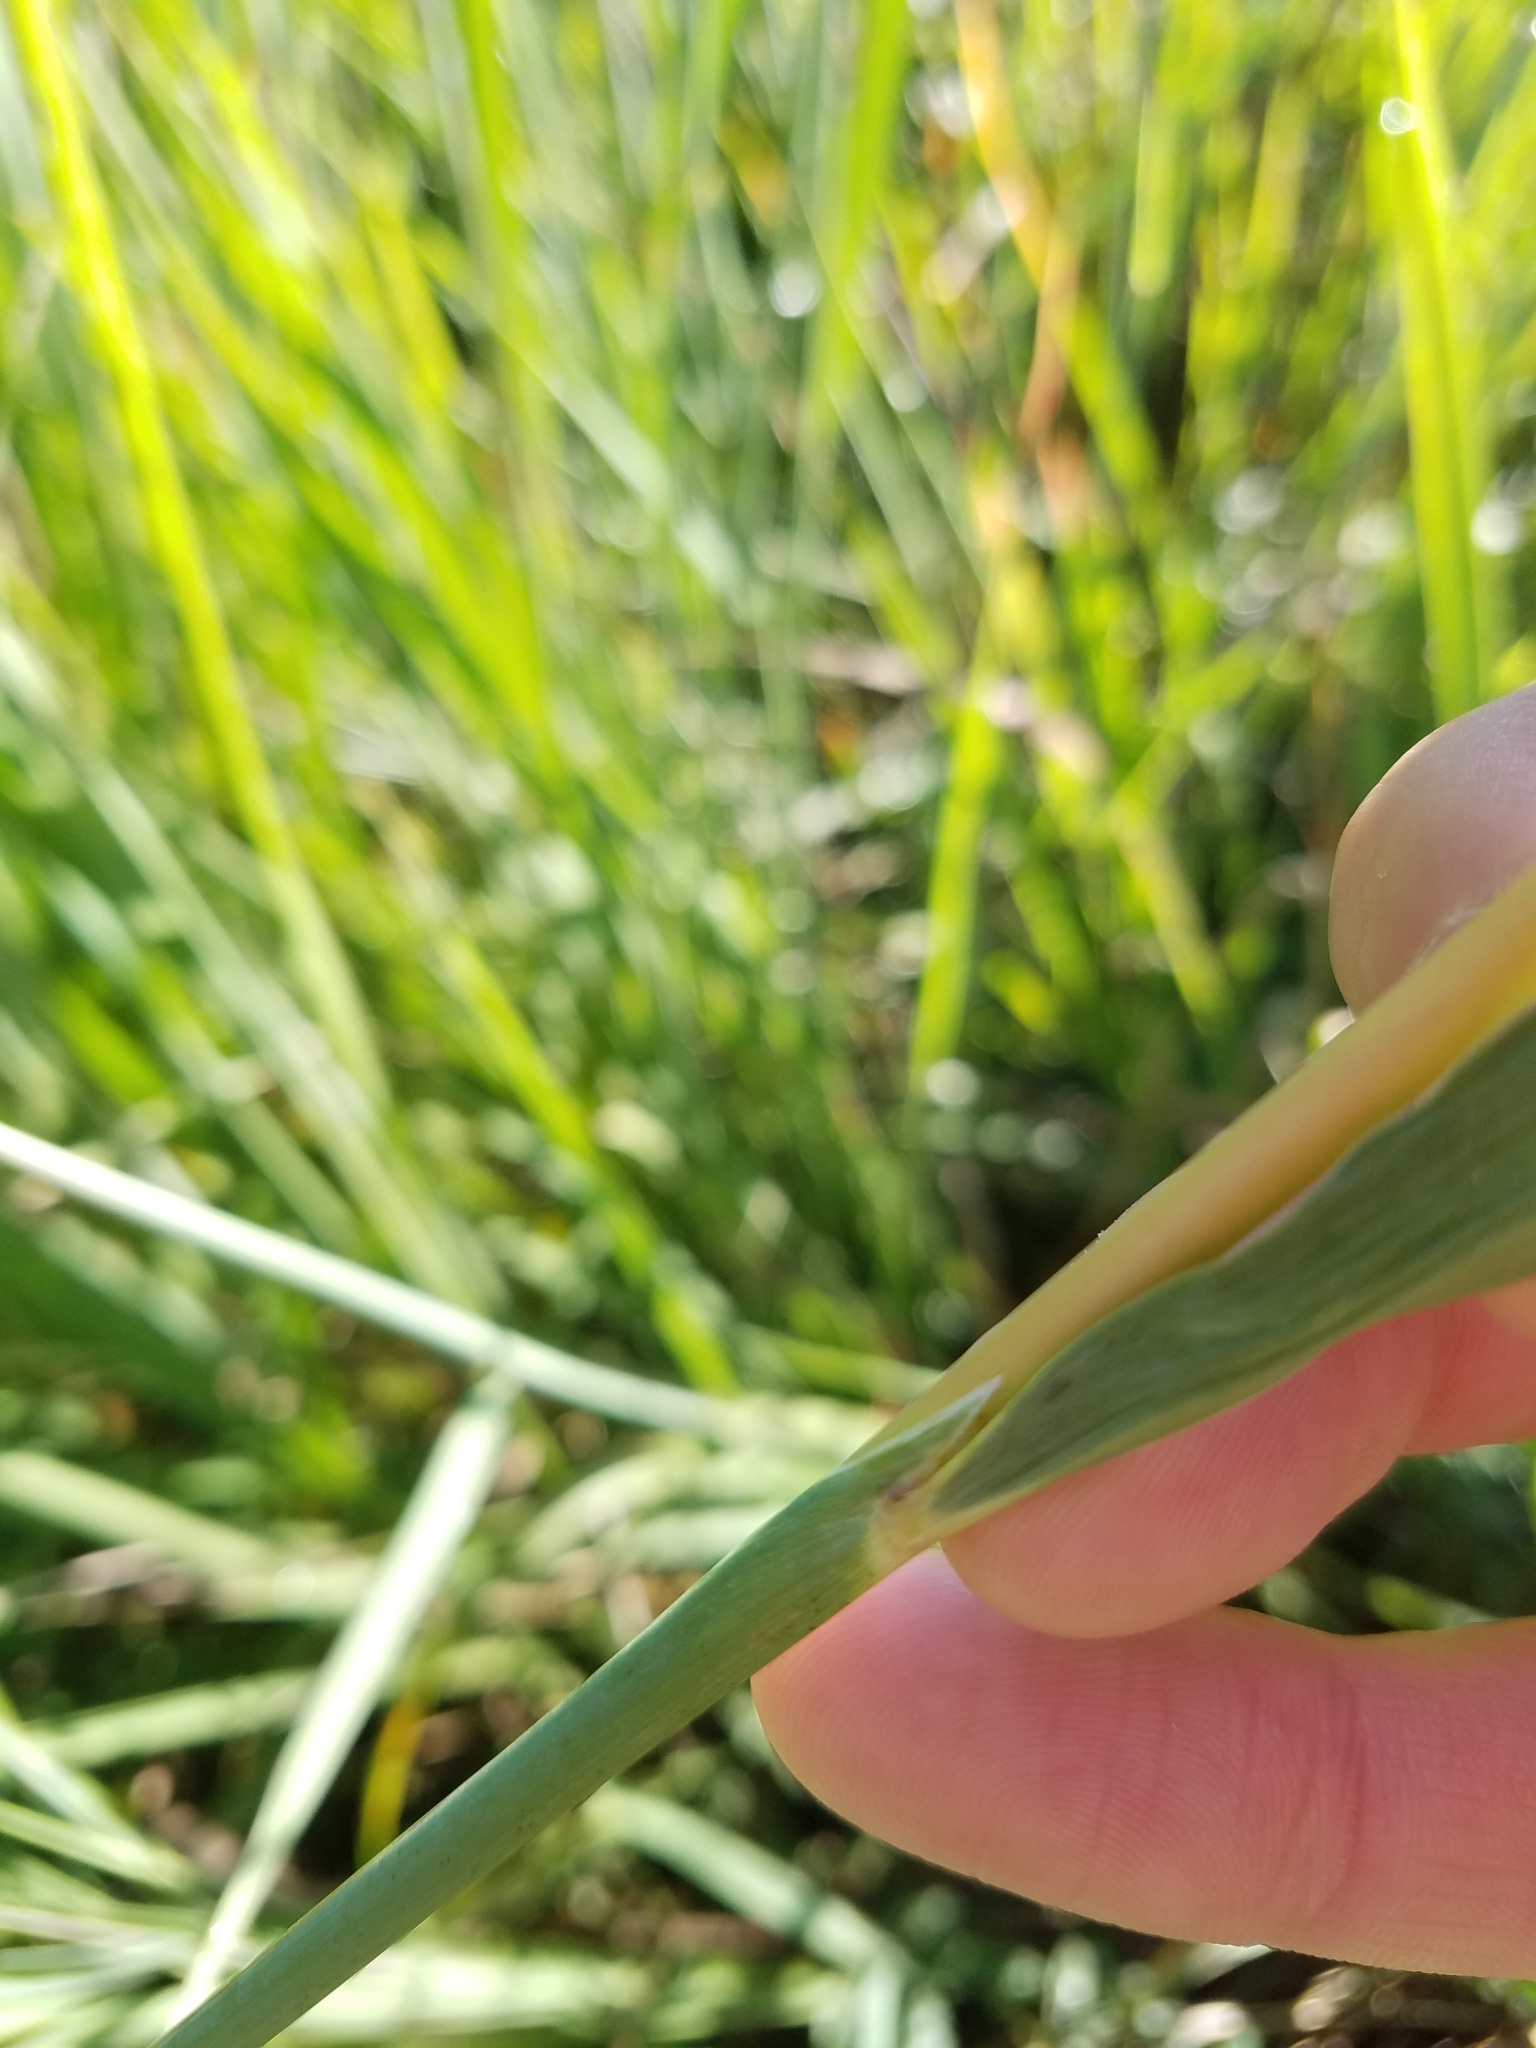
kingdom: Plantae
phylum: Tracheophyta
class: Liliopsida
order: Poales
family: Poaceae
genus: Sorghastrum
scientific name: Sorghastrum nutans
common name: Indian grass
